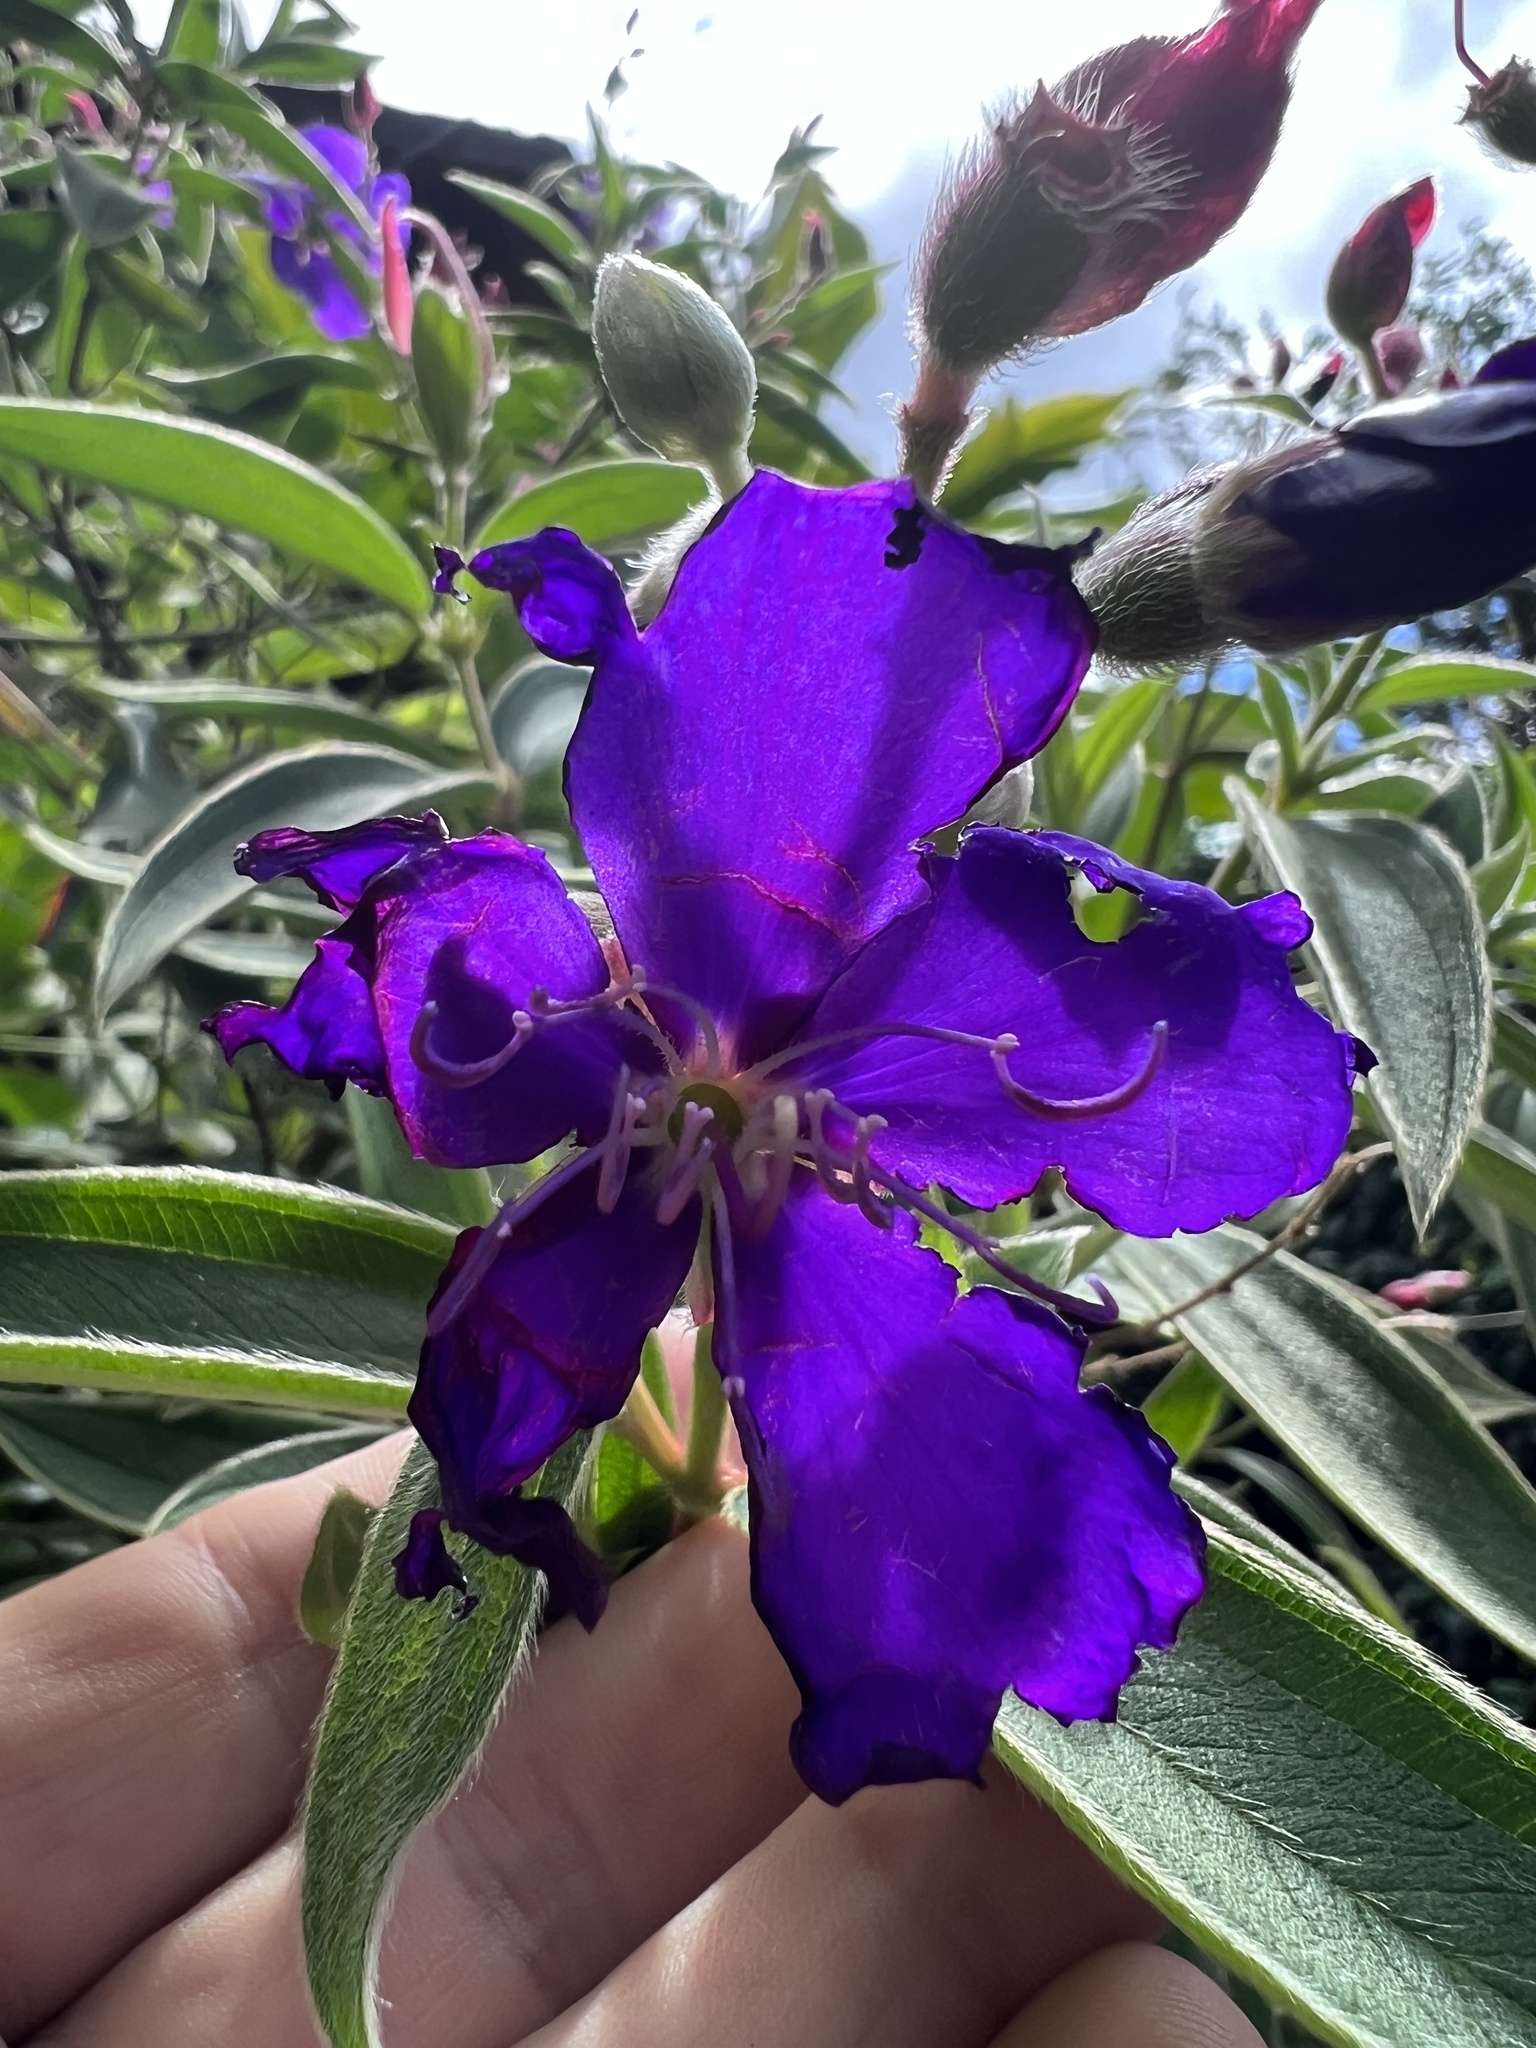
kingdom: Plantae
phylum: Tracheophyta
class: Magnoliopsida
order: Myrtales
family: Melastomataceae
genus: Pleroma
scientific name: Pleroma urvilleanum
